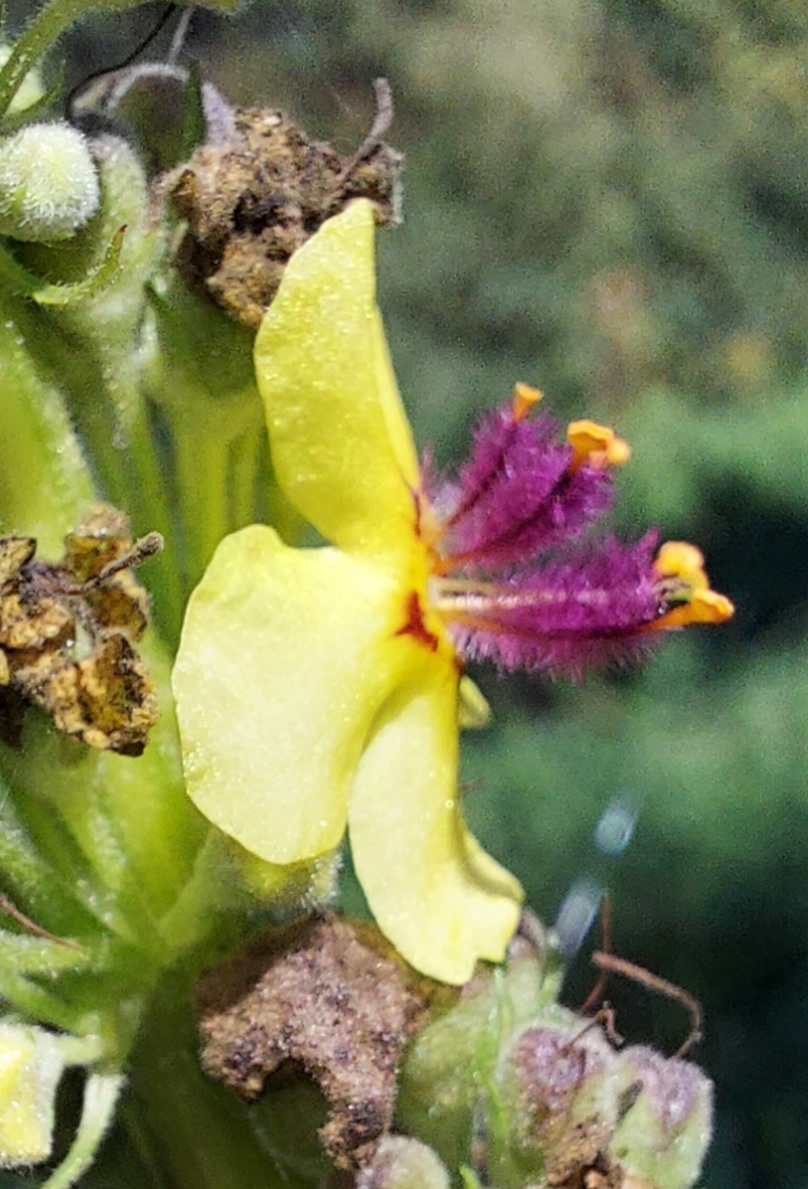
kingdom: Plantae
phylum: Tracheophyta
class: Magnoliopsida
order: Lamiales
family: Scrophulariaceae
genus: Verbascum
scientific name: Verbascum nigrum
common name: Dark mullein
